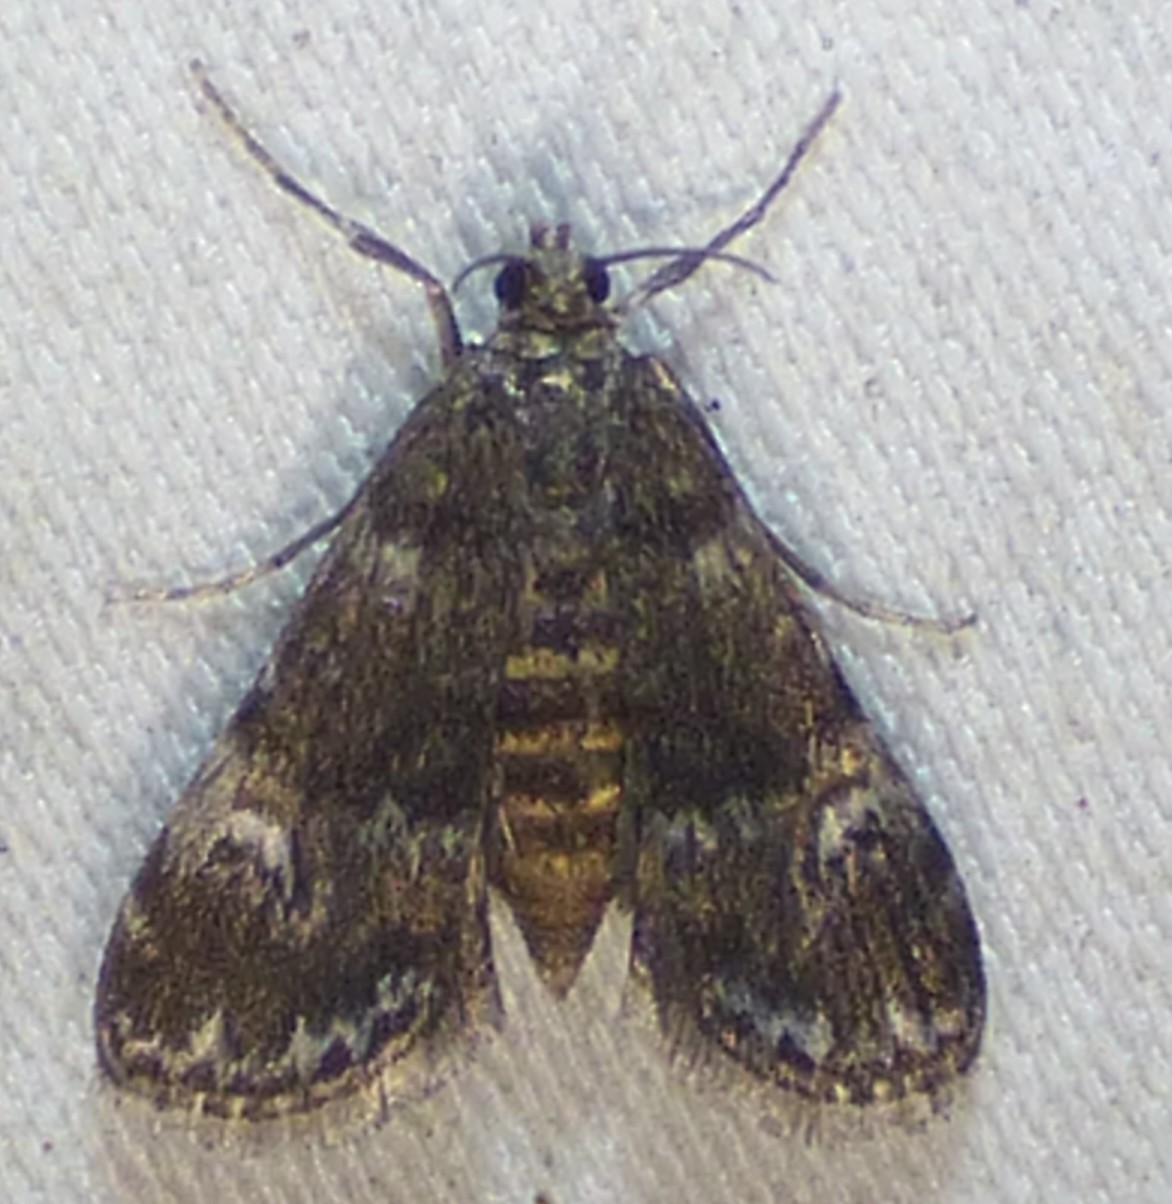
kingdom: Animalia
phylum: Arthropoda
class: Insecta
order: Lepidoptera
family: Crambidae
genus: Elophila
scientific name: Elophila obliteralis
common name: Waterlily leafcutter moth
